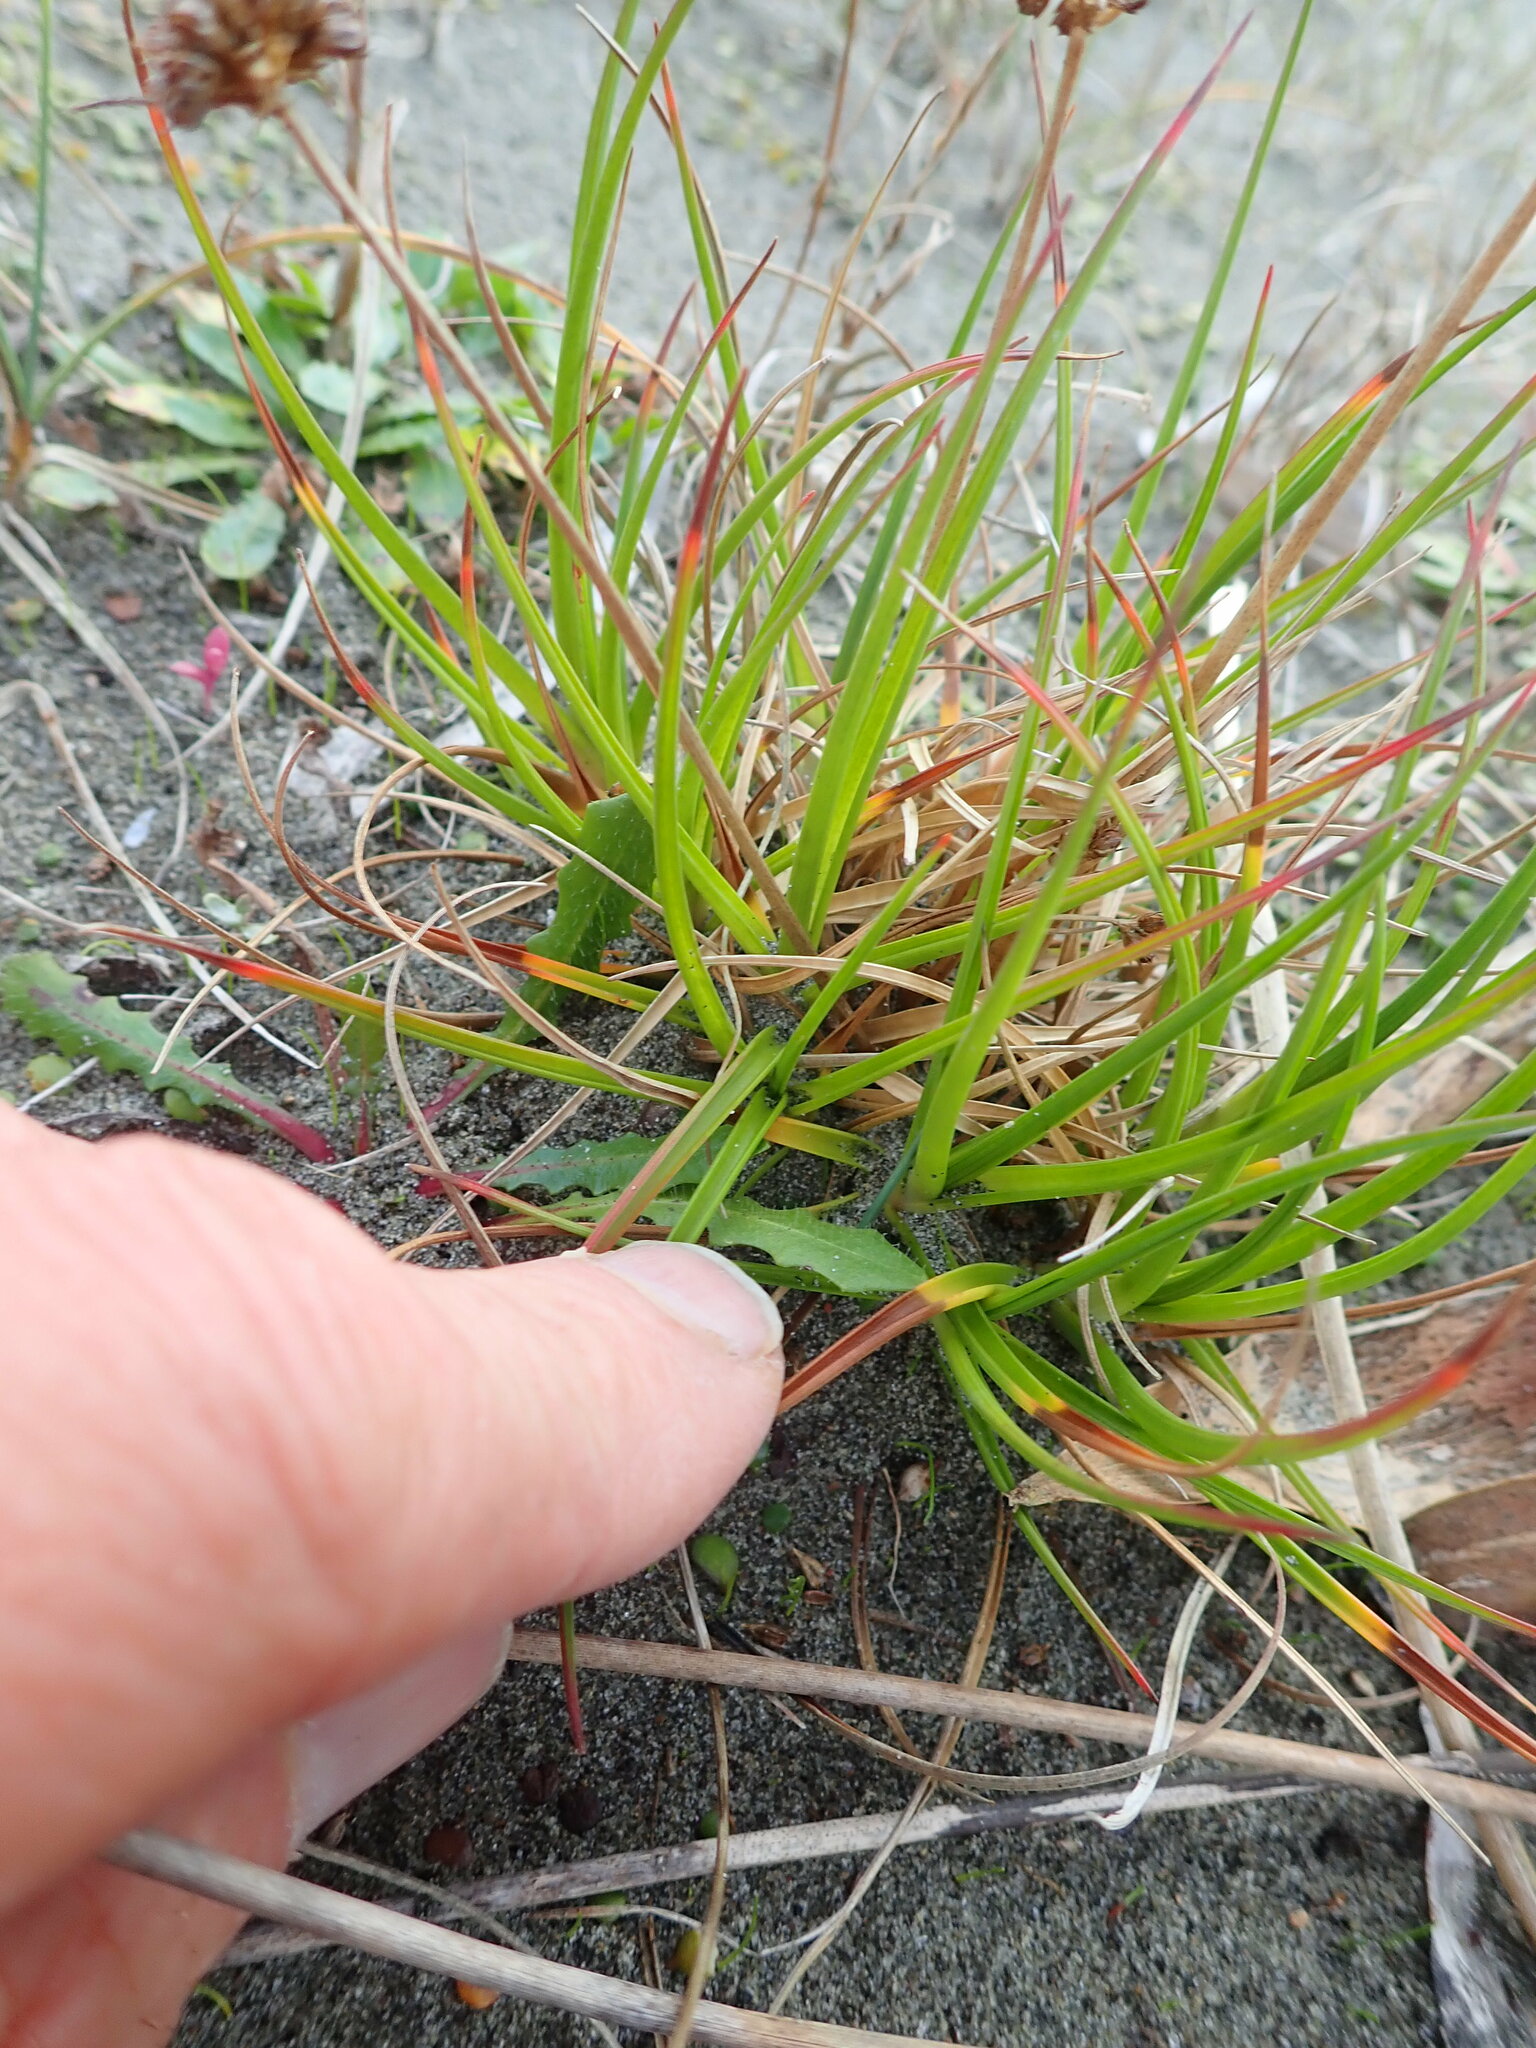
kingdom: Plantae
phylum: Tracheophyta
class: Liliopsida
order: Poales
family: Juncaceae
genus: Juncus
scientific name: Juncus caespiticius
